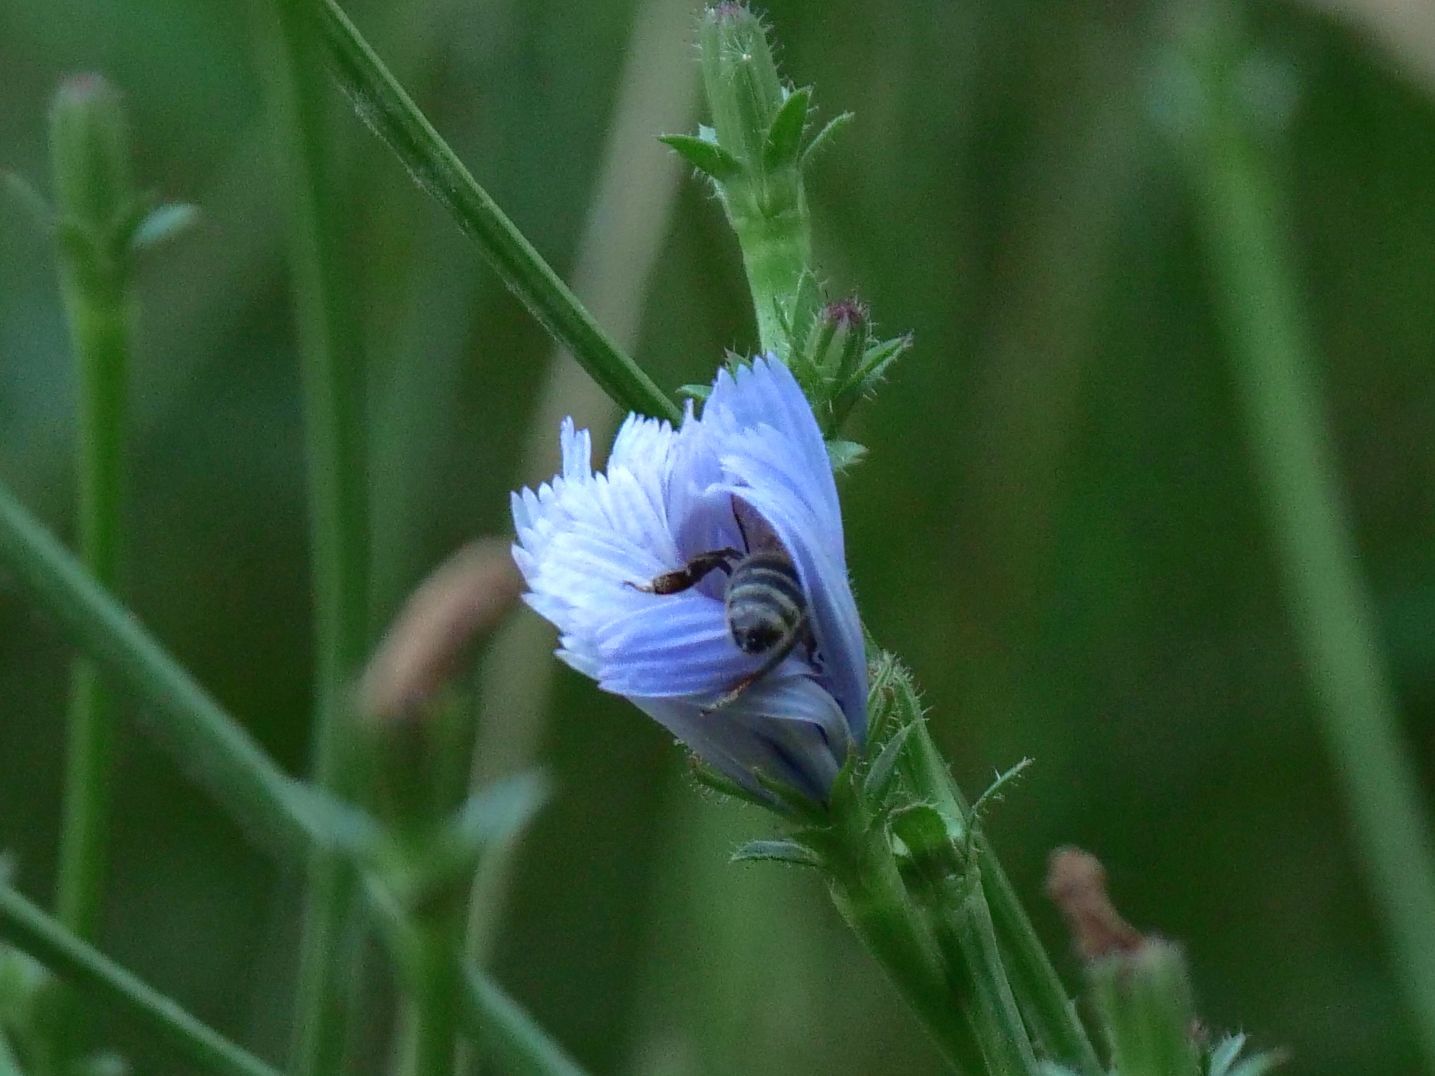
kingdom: Animalia
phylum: Arthropoda
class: Insecta
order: Hymenoptera
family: Apidae
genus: Apis
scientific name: Apis mellifera
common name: Honey bee
